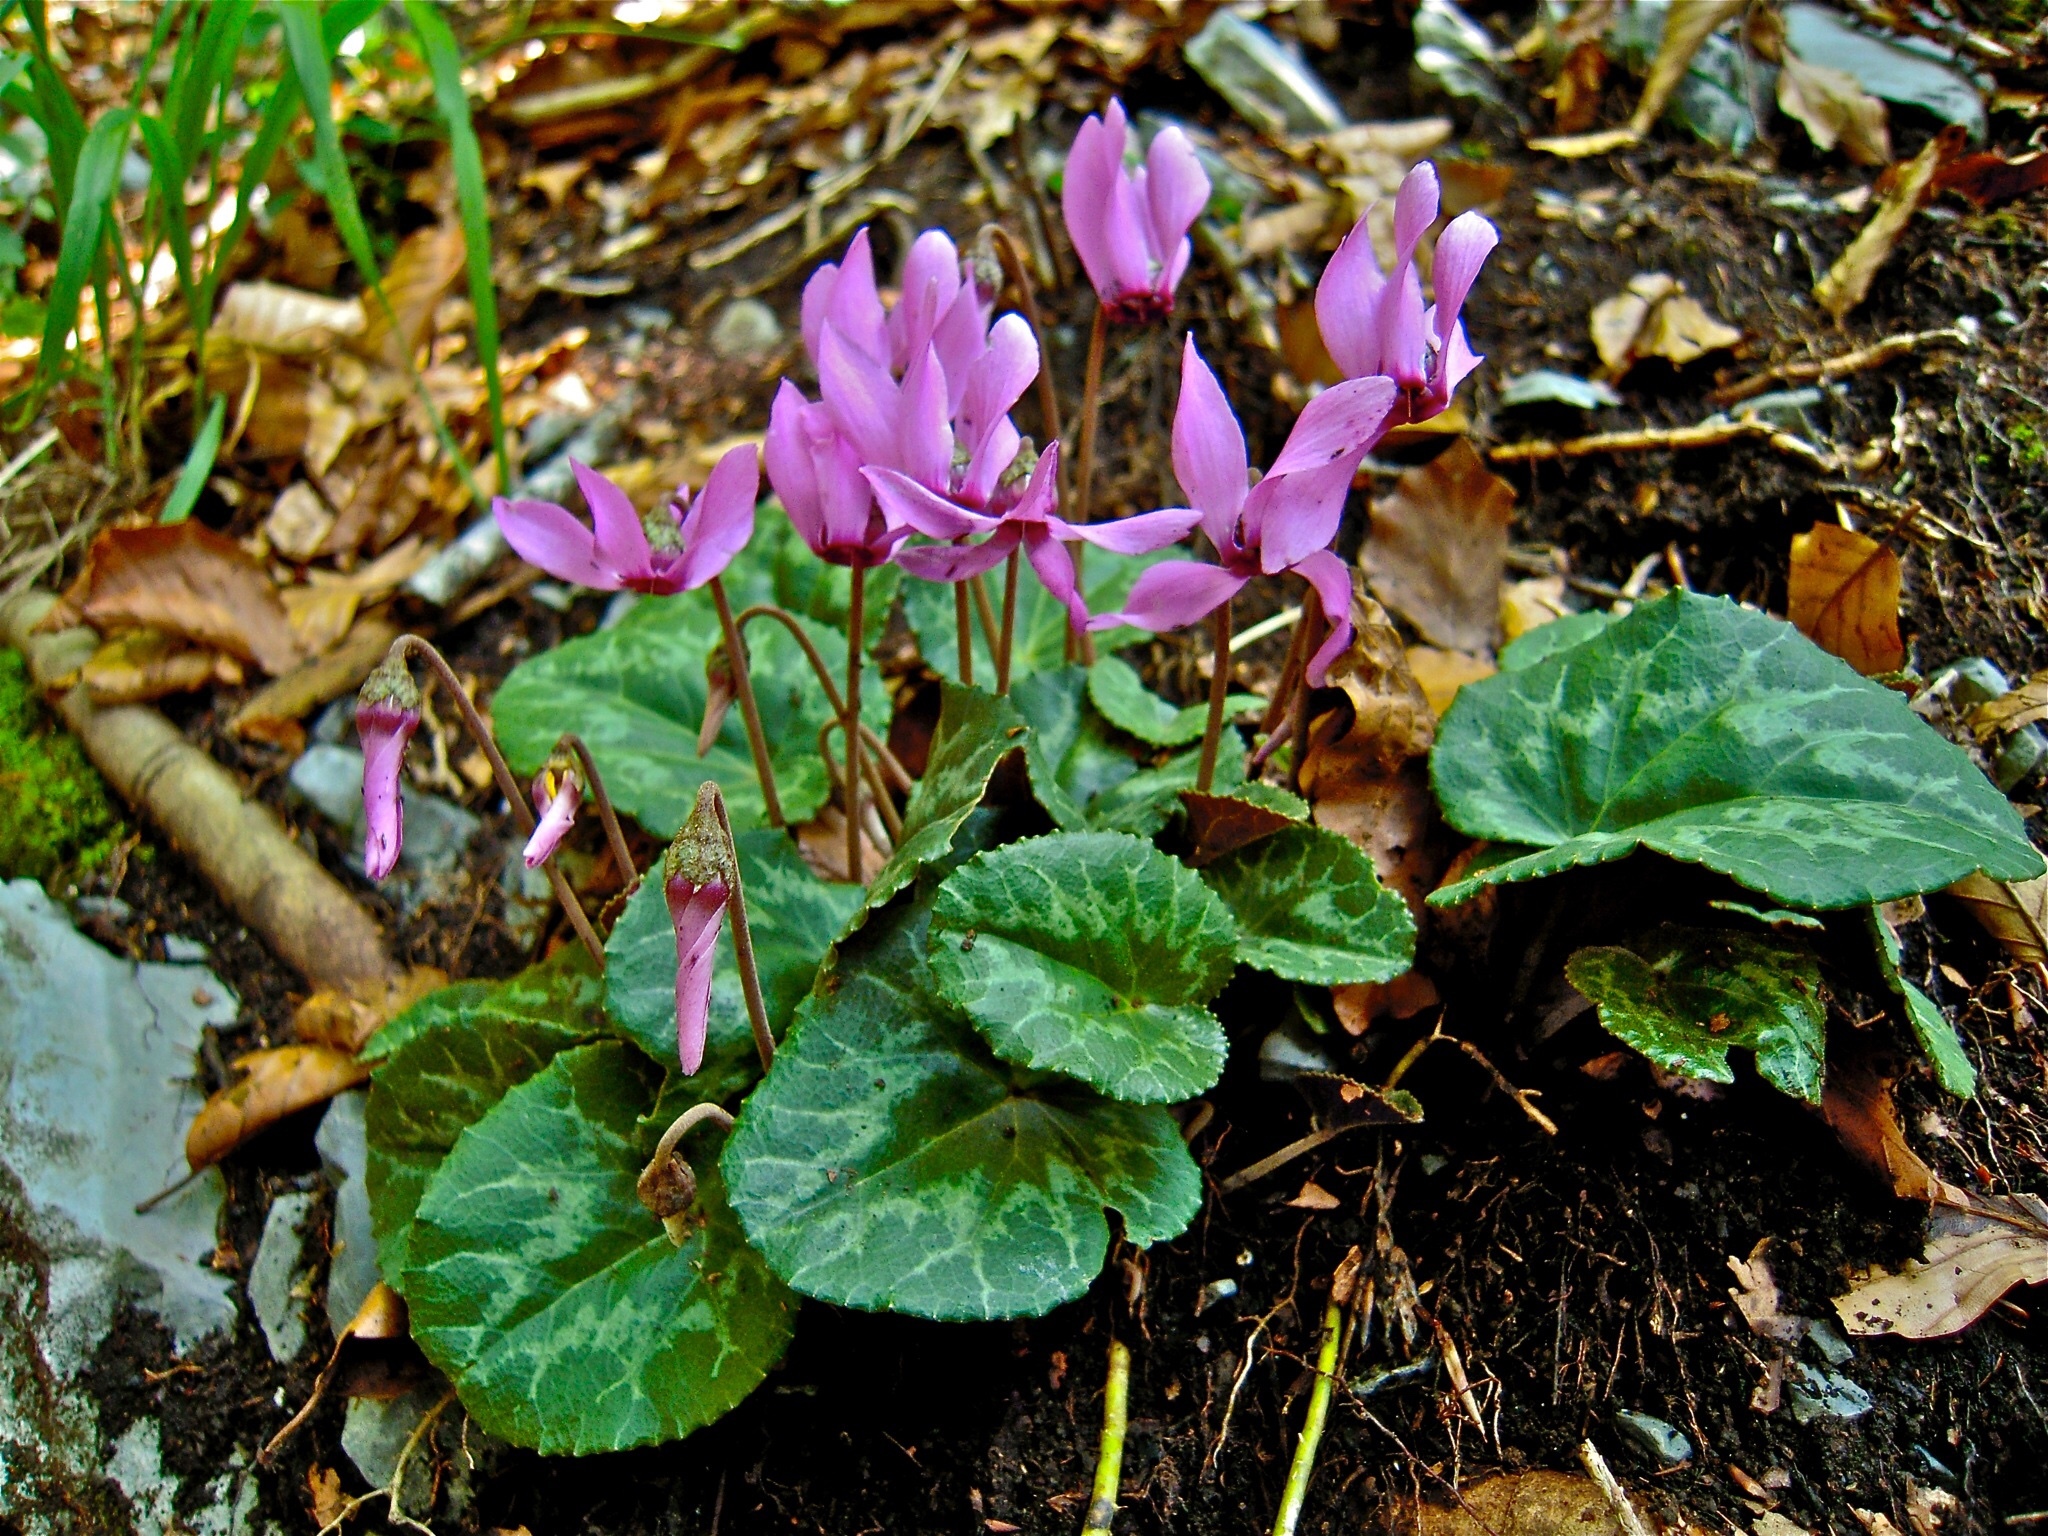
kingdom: Plantae
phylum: Tracheophyta
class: Magnoliopsida
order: Ericales
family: Primulaceae
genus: Cyclamen
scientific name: Cyclamen purpurascens
